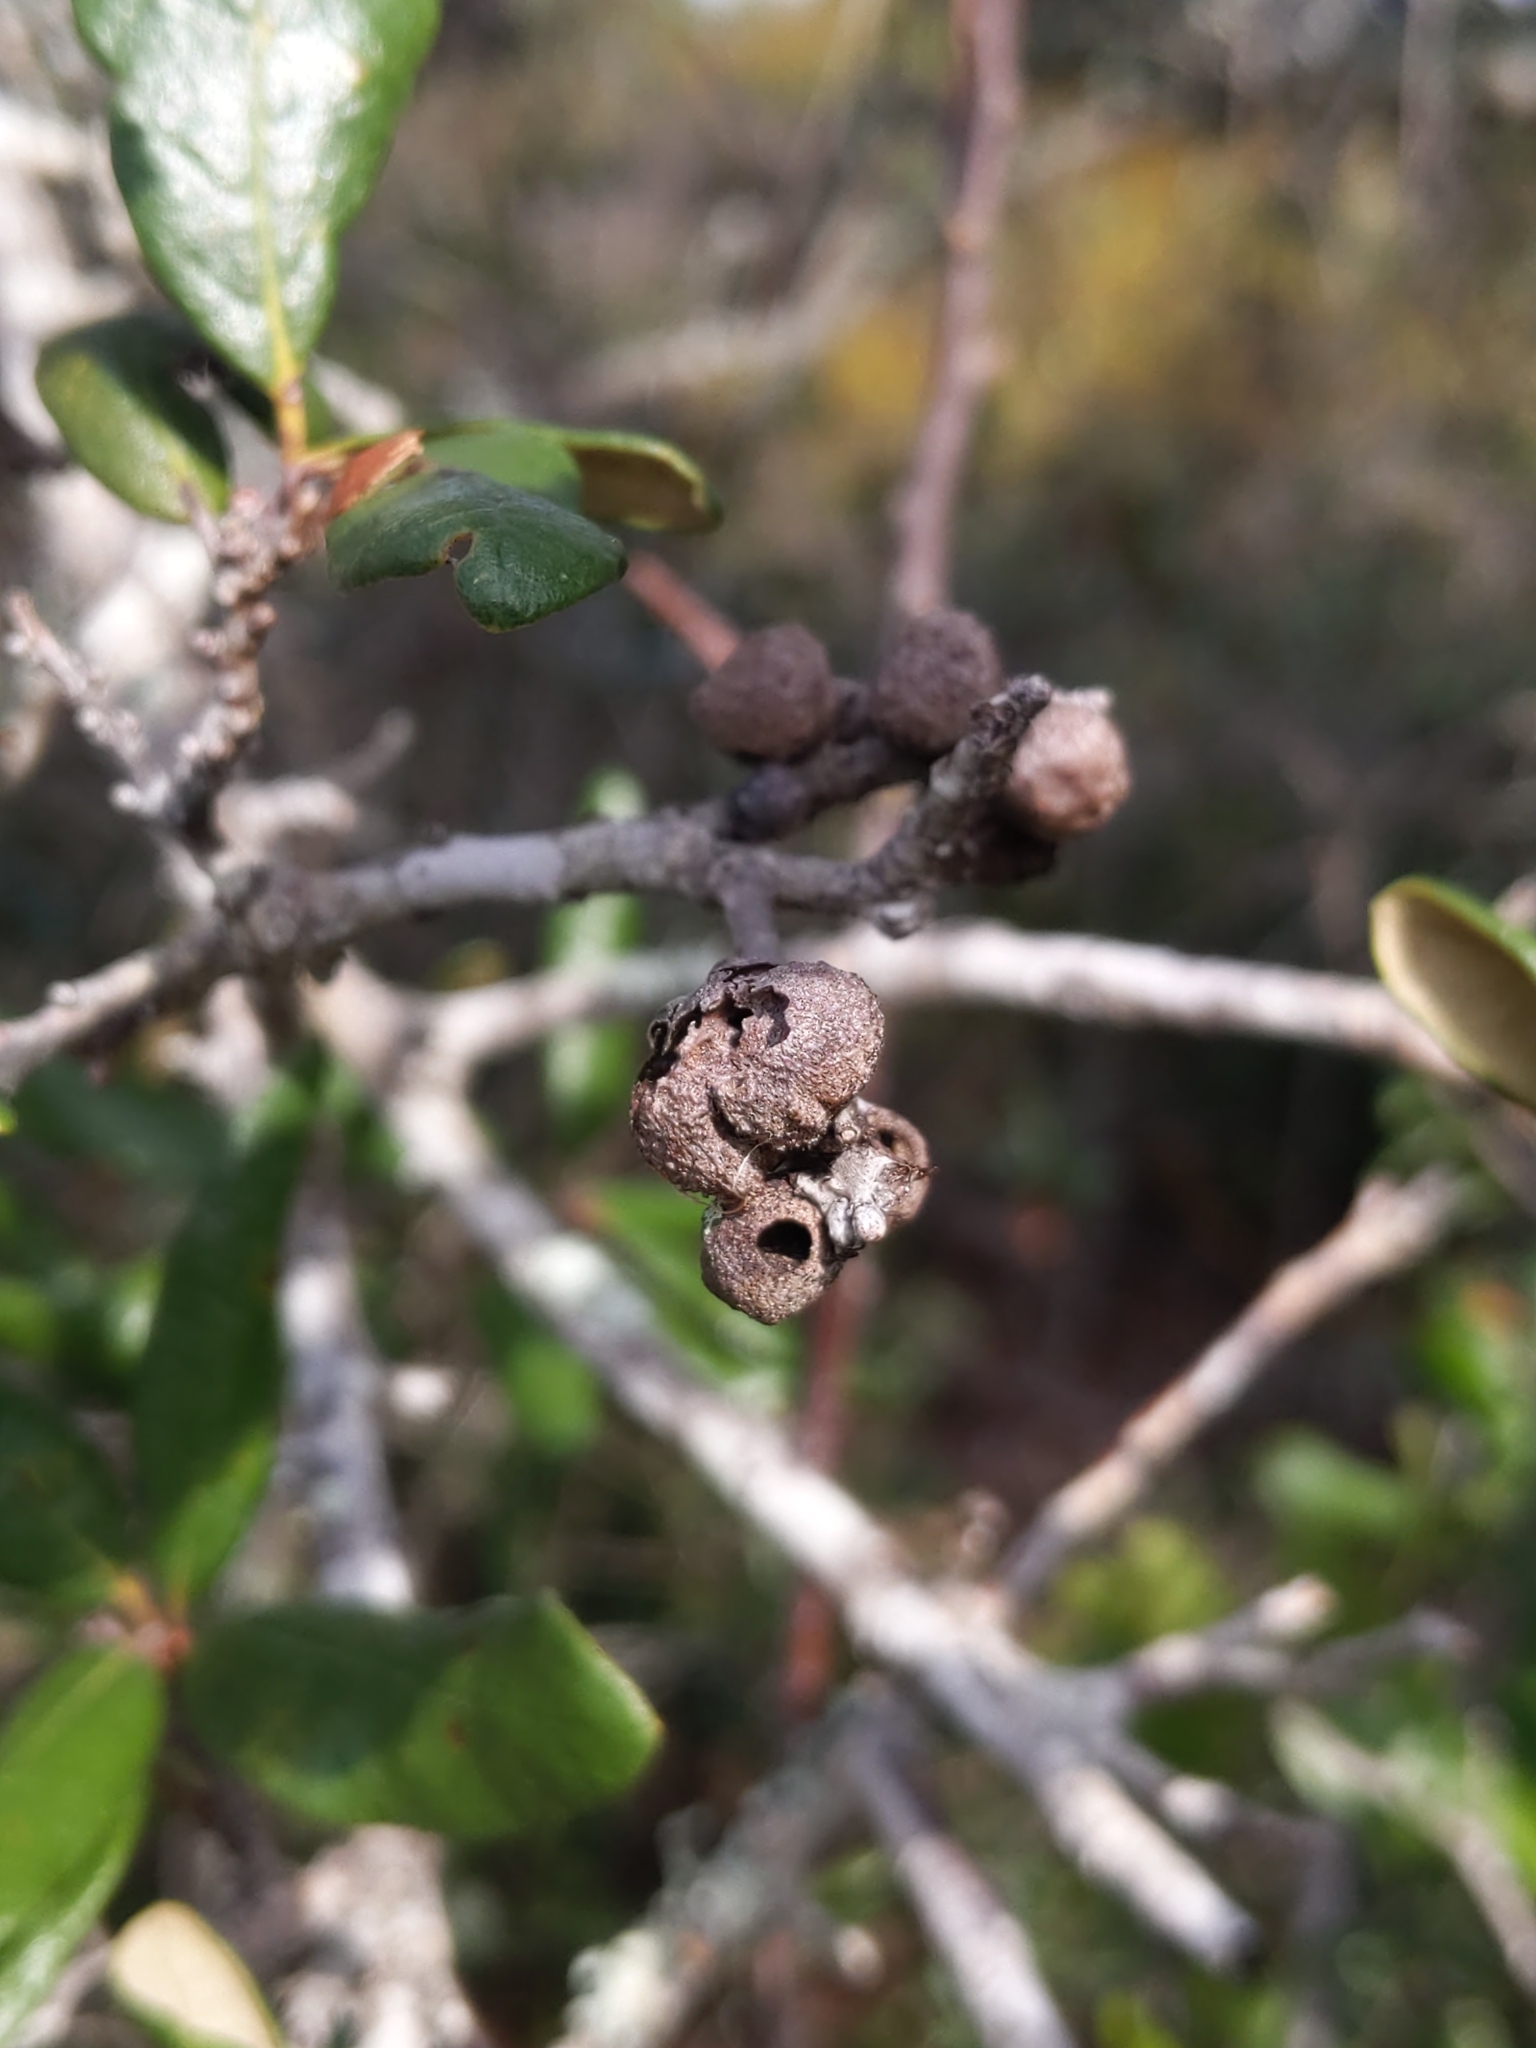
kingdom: Animalia
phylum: Arthropoda
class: Insecta
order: Hymenoptera
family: Cynipidae
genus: Disholcaspis
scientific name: Disholcaspis
